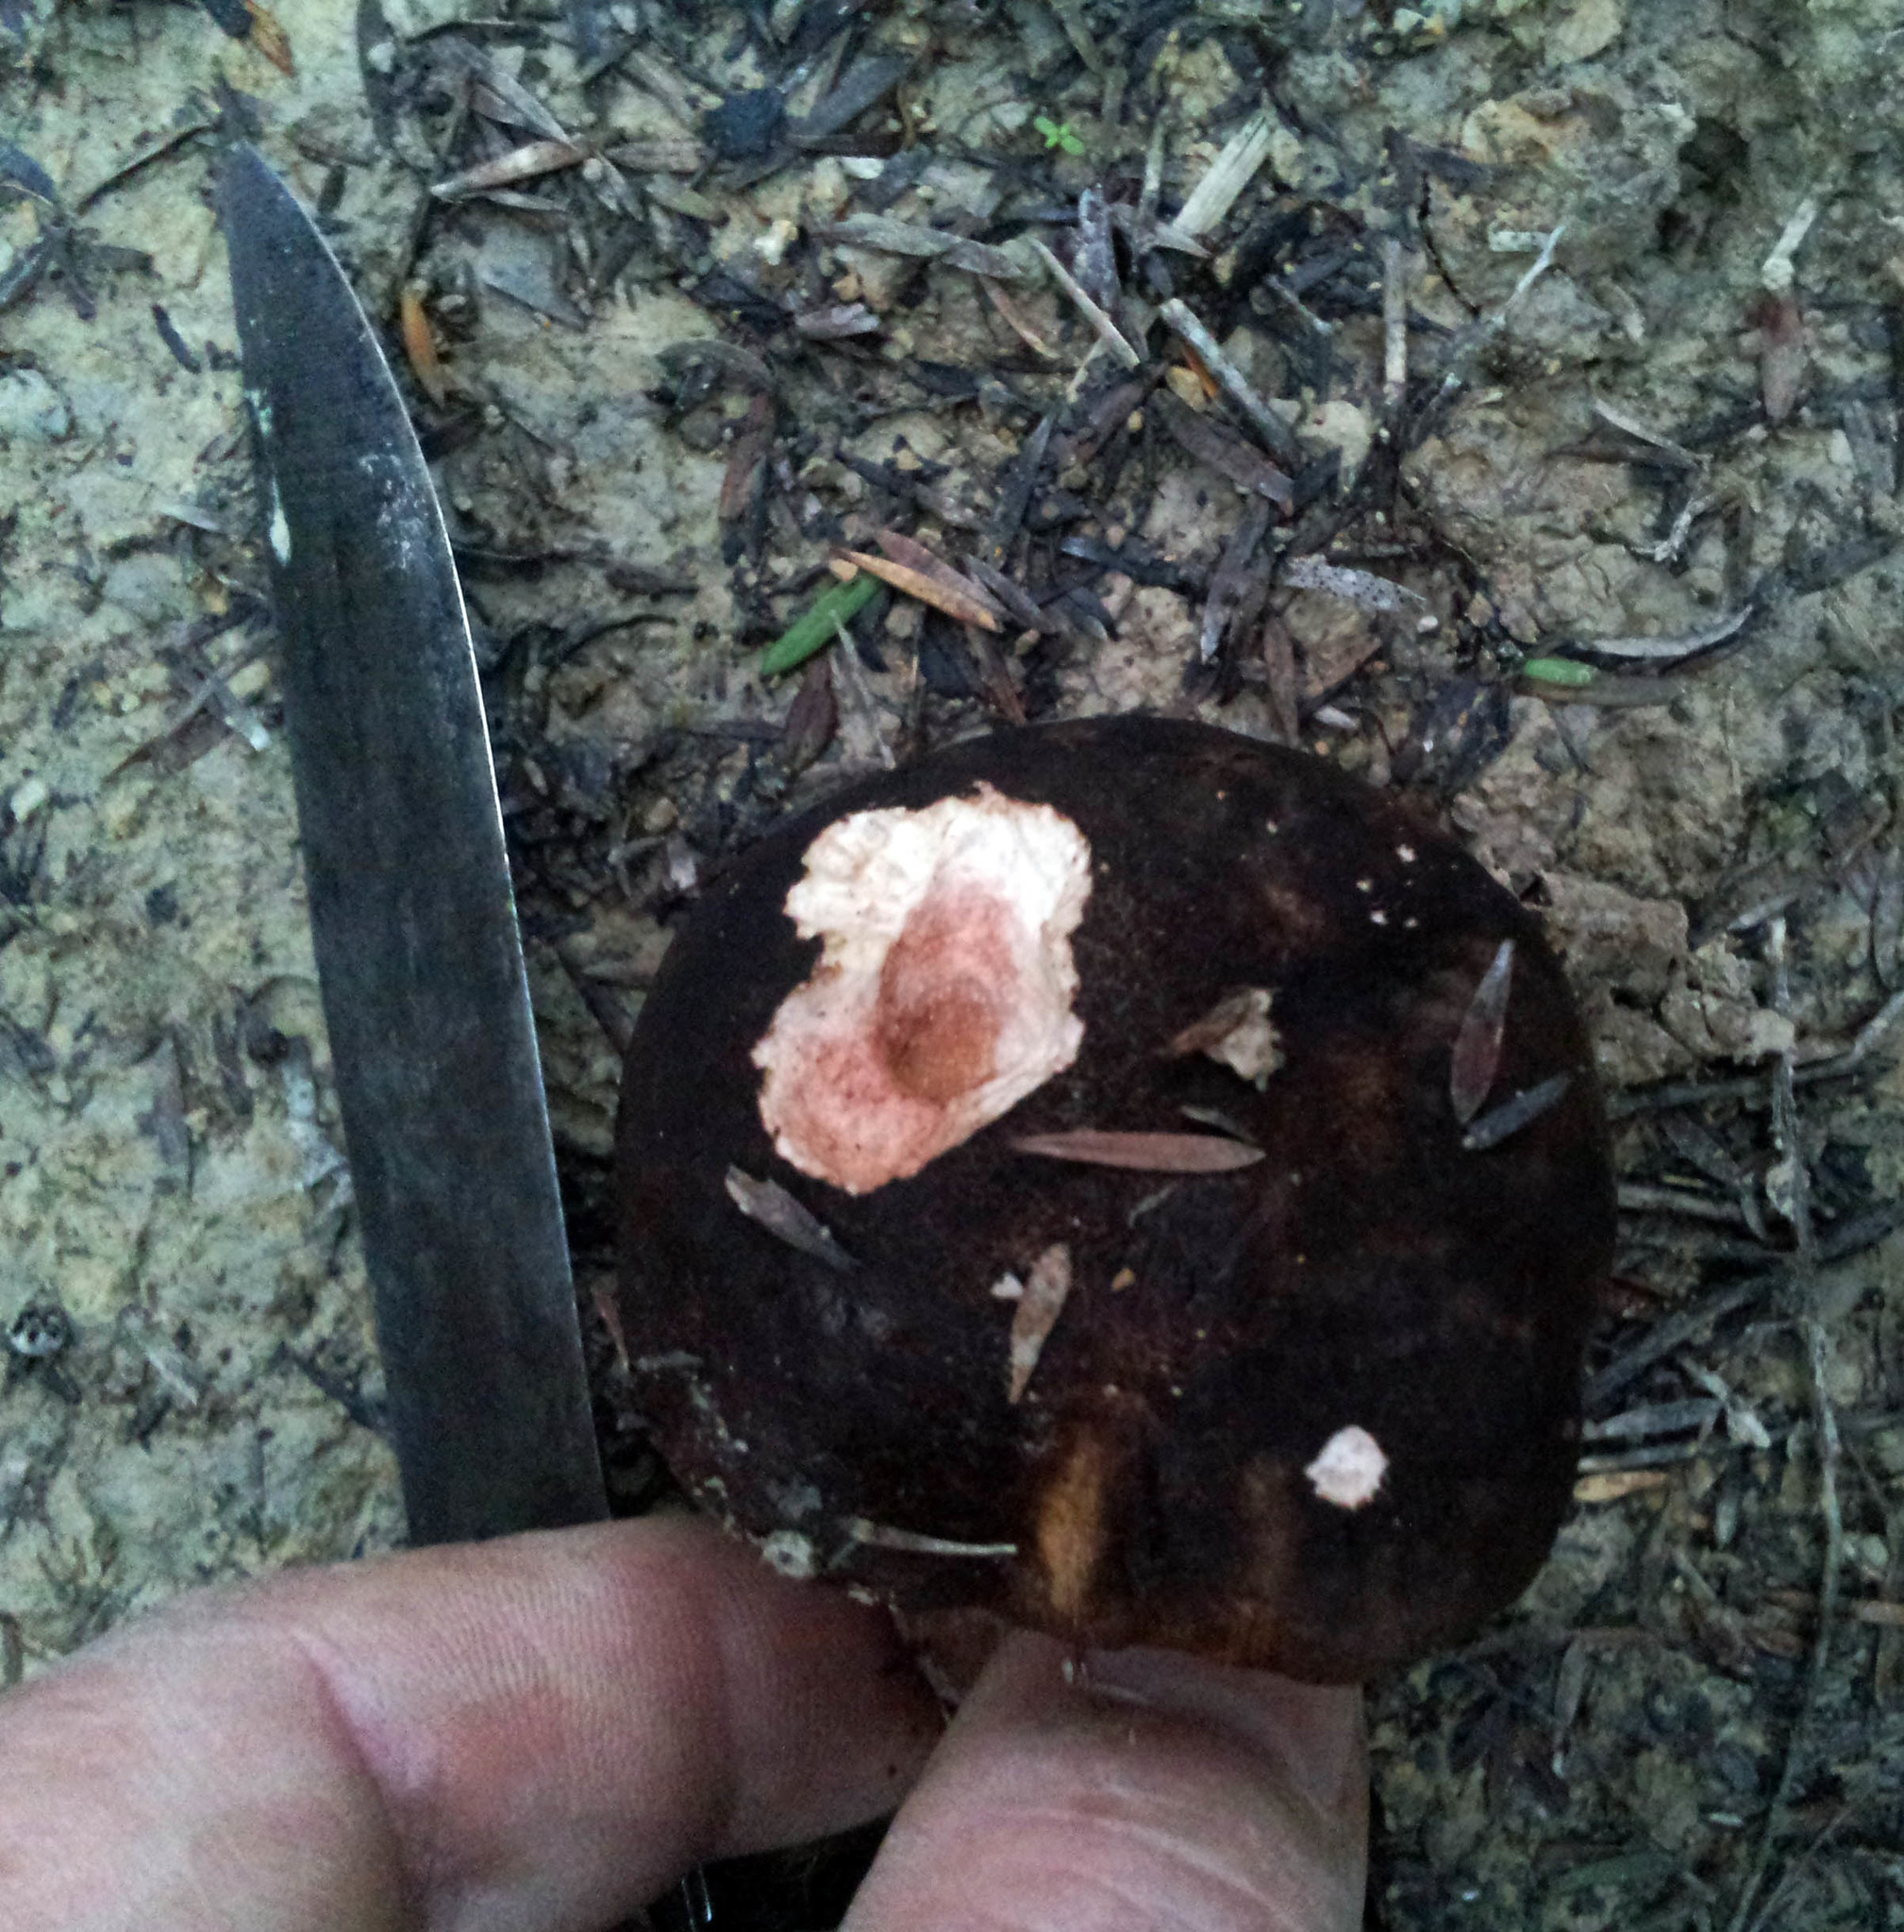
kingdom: Fungi
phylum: Basidiomycota
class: Agaricomycetes
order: Boletales
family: Boletaceae
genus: Porphyrellus
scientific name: Porphyrellus formosus
